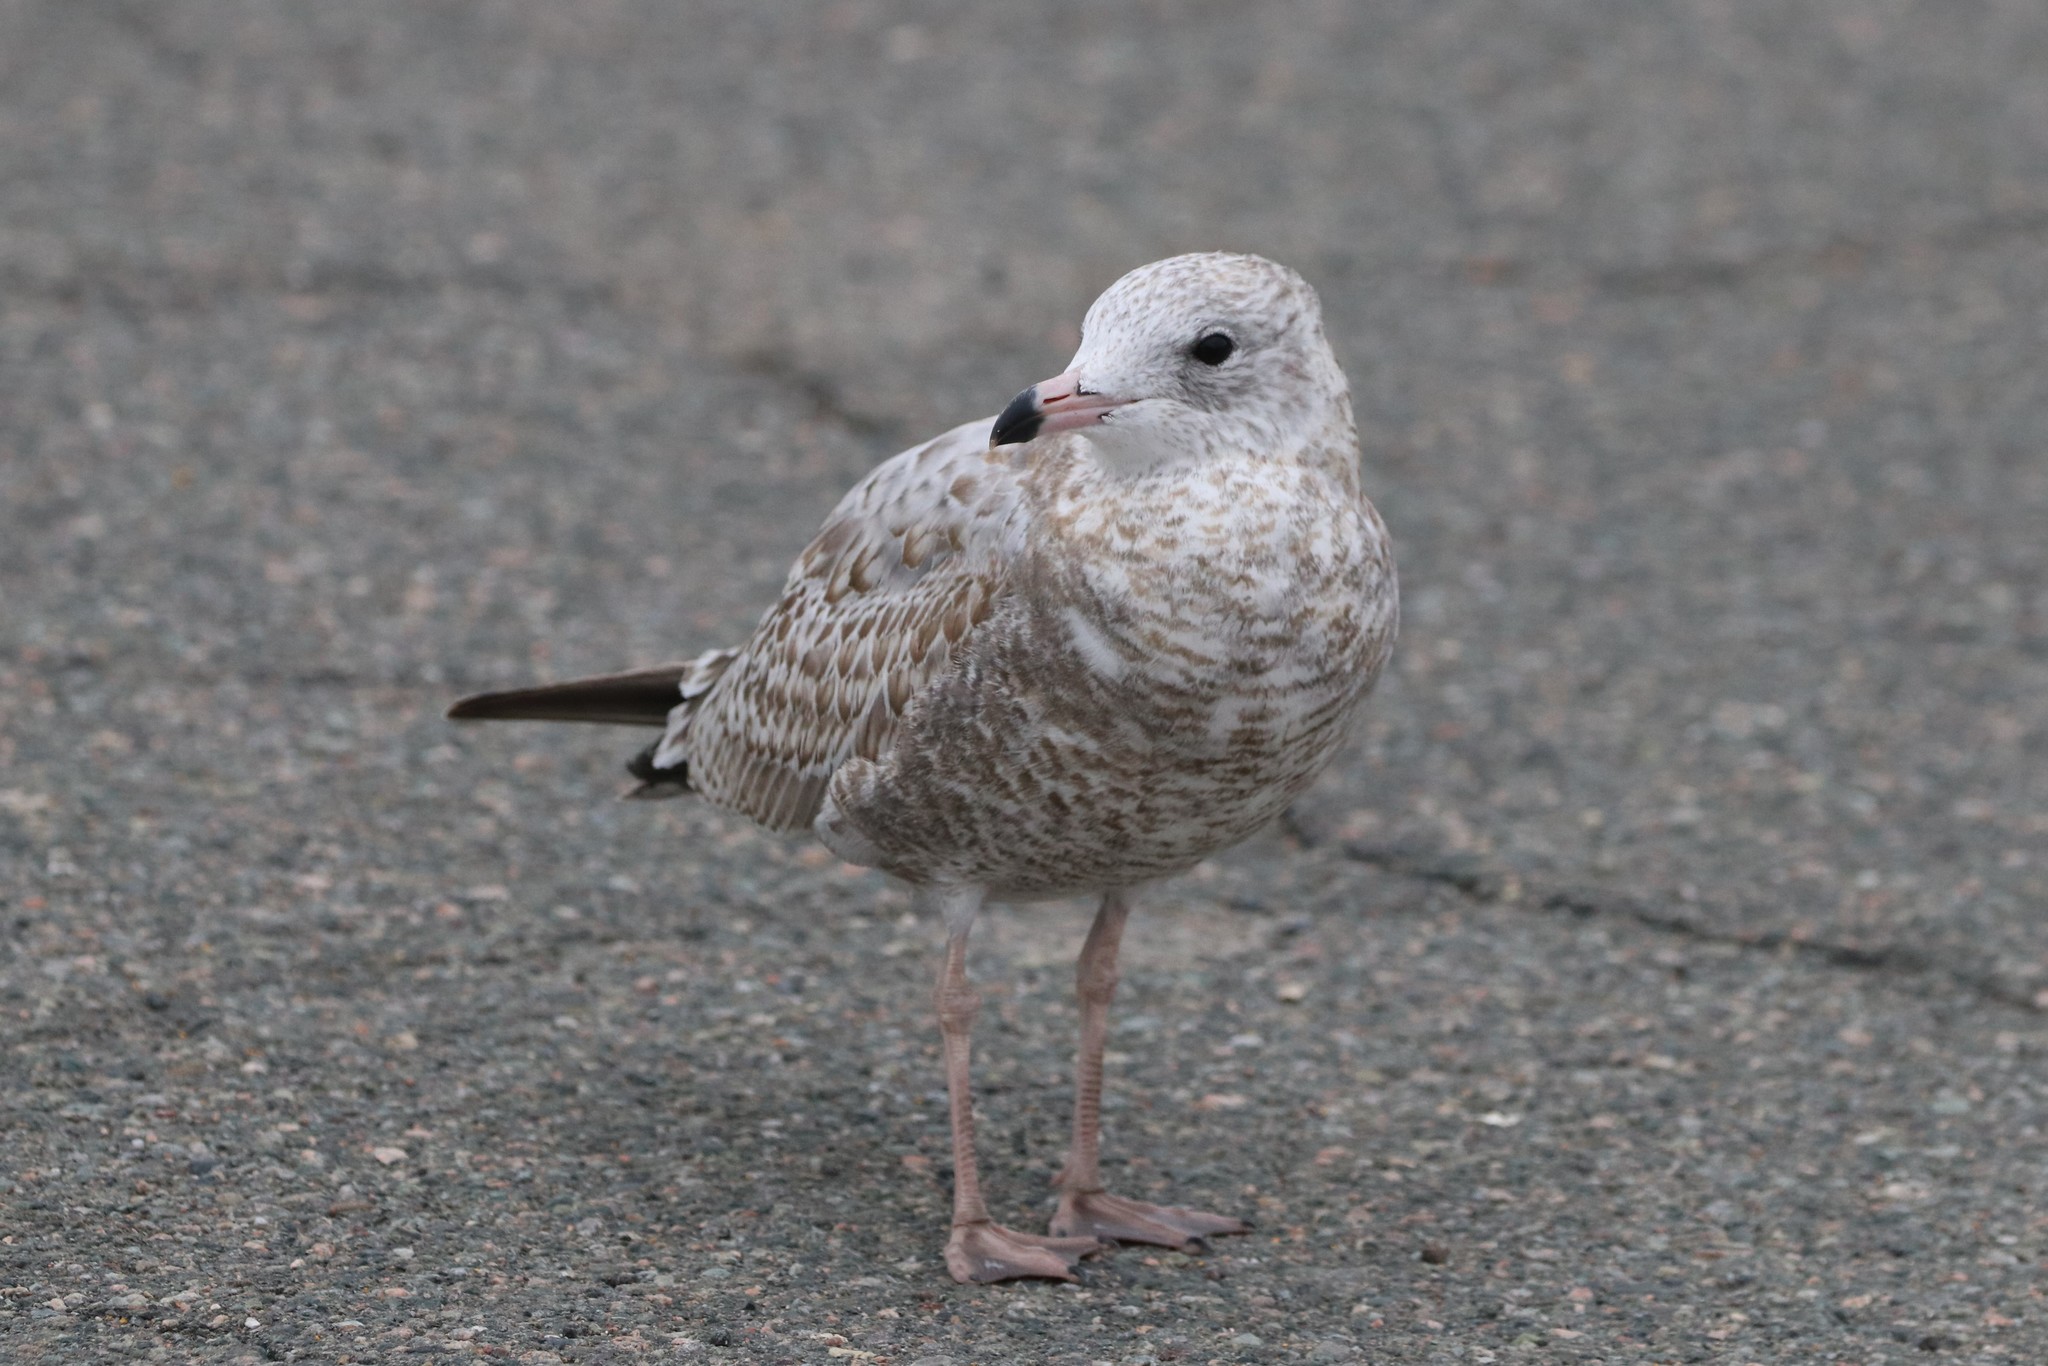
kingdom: Animalia
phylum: Chordata
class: Aves
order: Charadriiformes
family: Laridae
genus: Larus
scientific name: Larus delawarensis
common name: Ring-billed gull
